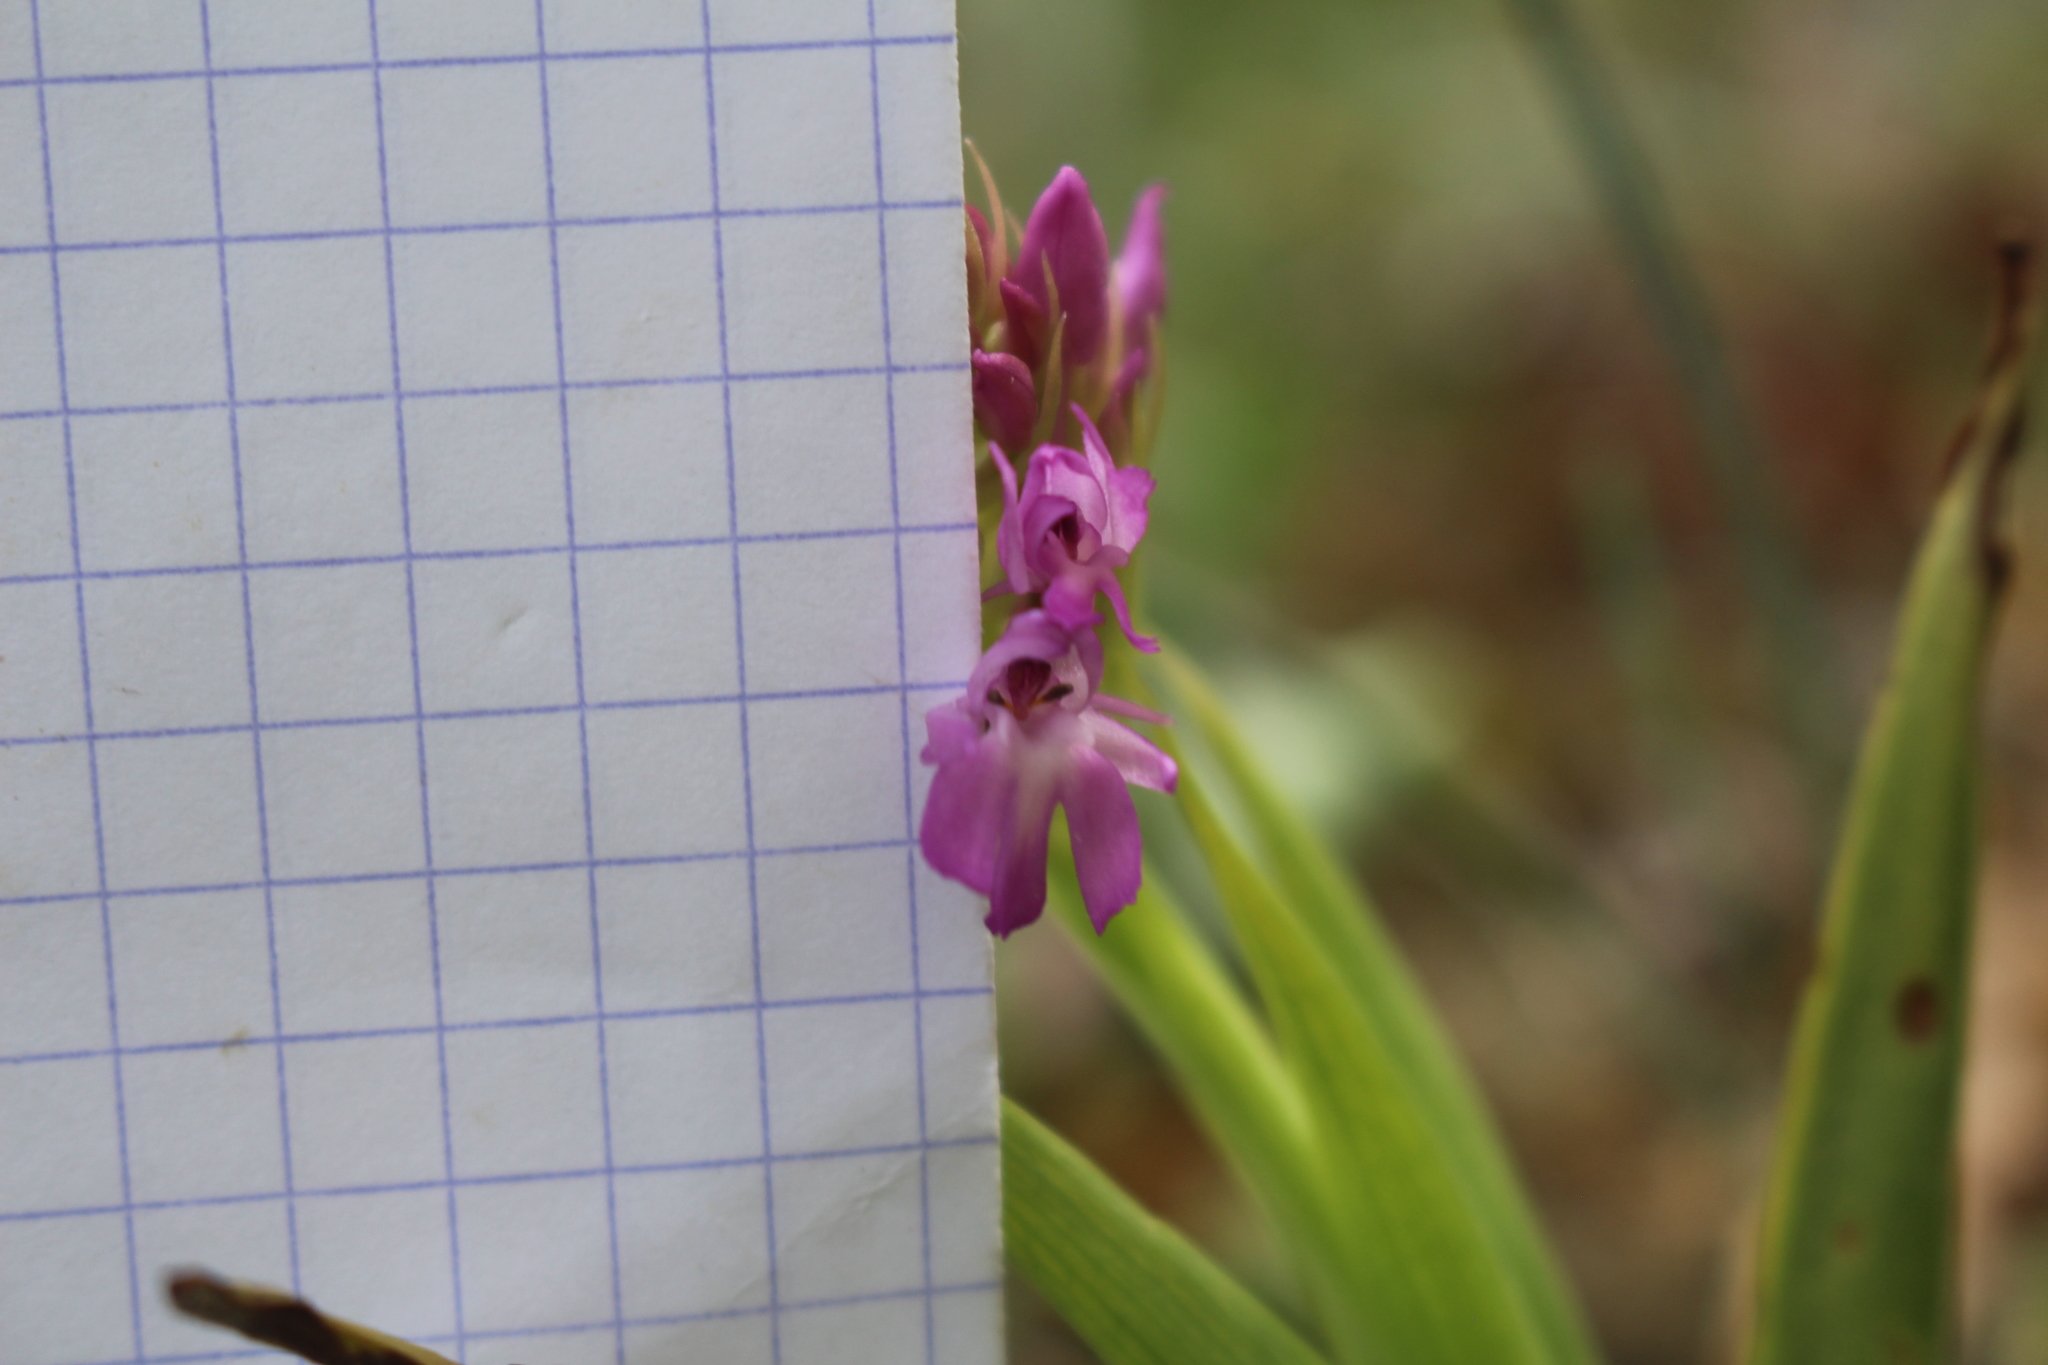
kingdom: Plantae
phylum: Tracheophyta
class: Liliopsida
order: Asparagales
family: Orchidaceae
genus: Anacamptis
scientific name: Anacamptis pyramidalis
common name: Pyramidal orchid
